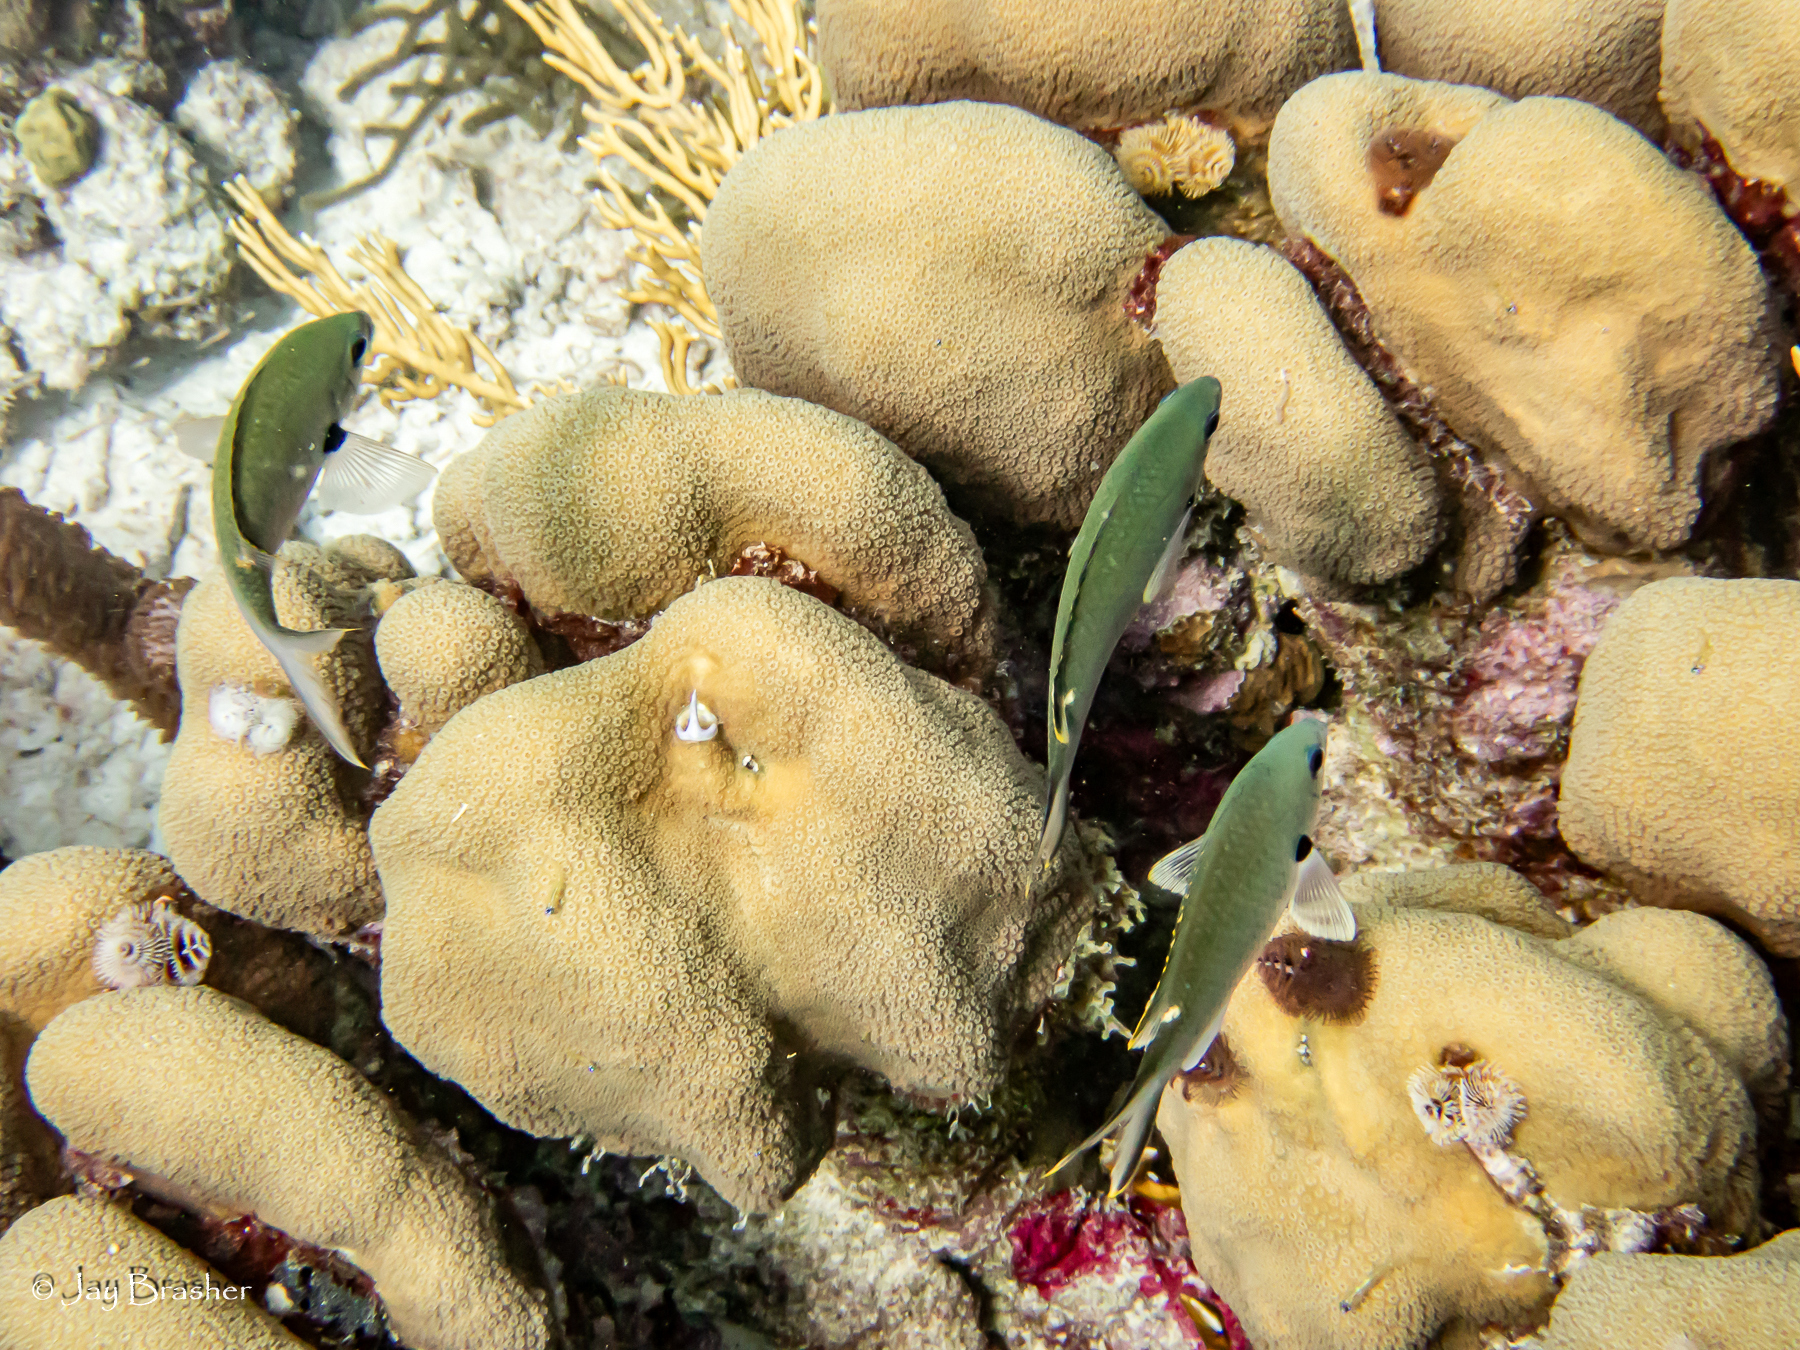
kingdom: Animalia
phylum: Chordata
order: Perciformes
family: Pomacentridae
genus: Chromis
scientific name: Chromis multilineata
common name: Brown chromis
